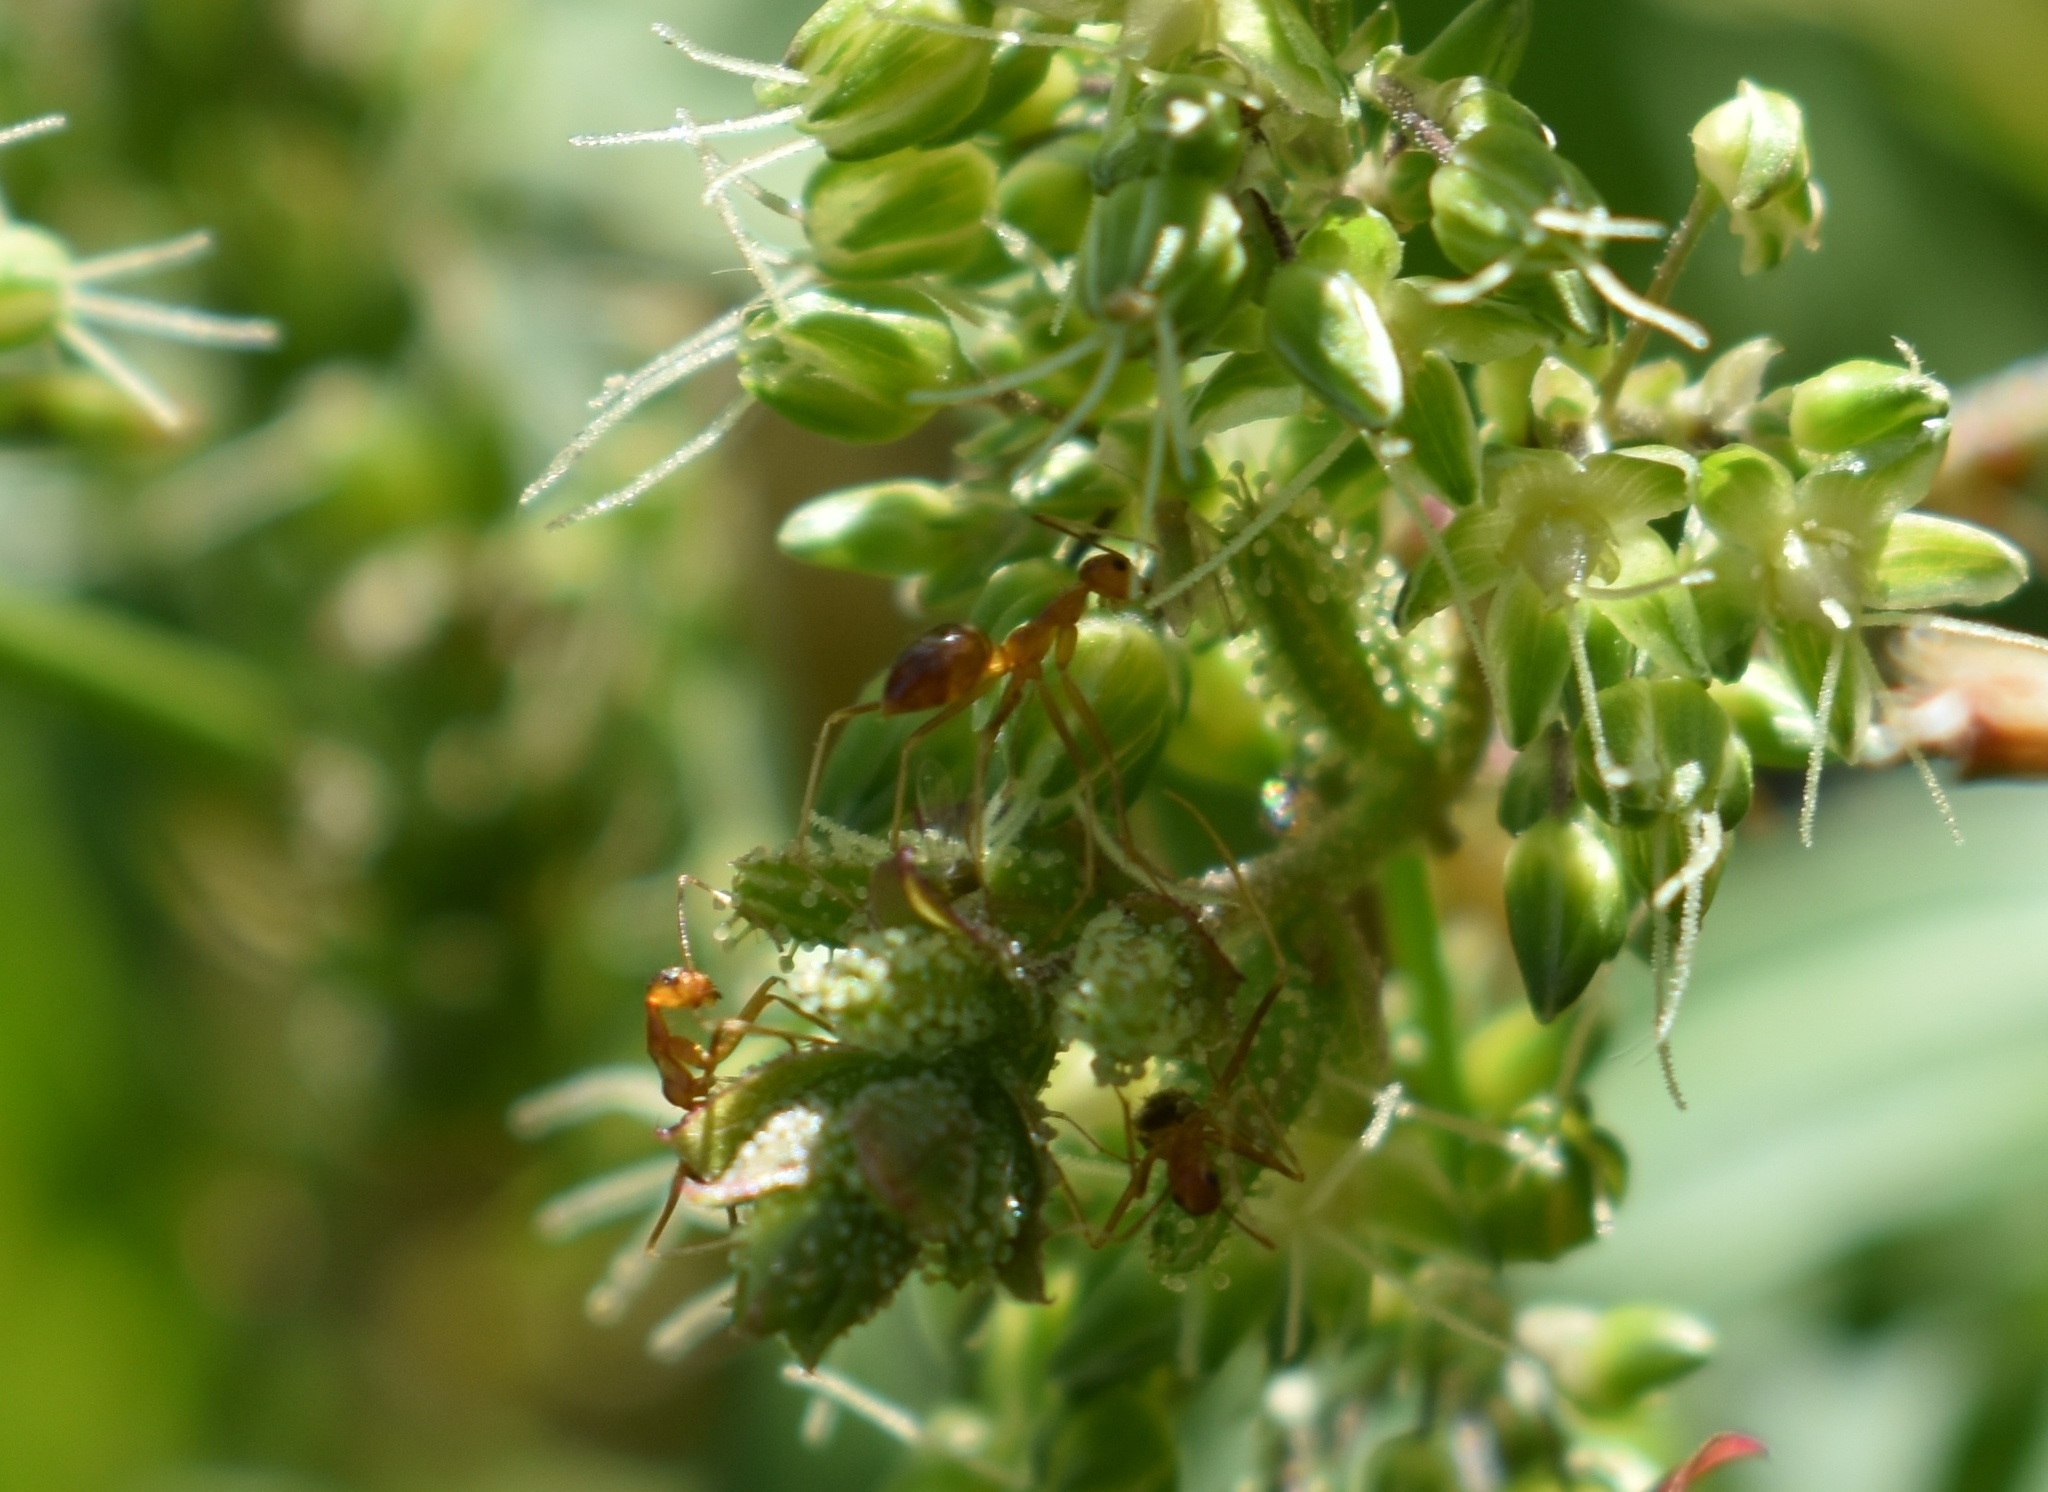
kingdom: Animalia
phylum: Arthropoda
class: Insecta
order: Hymenoptera
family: Formicidae
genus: Anoplolepis
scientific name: Anoplolepis gracilipes
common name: Ant
